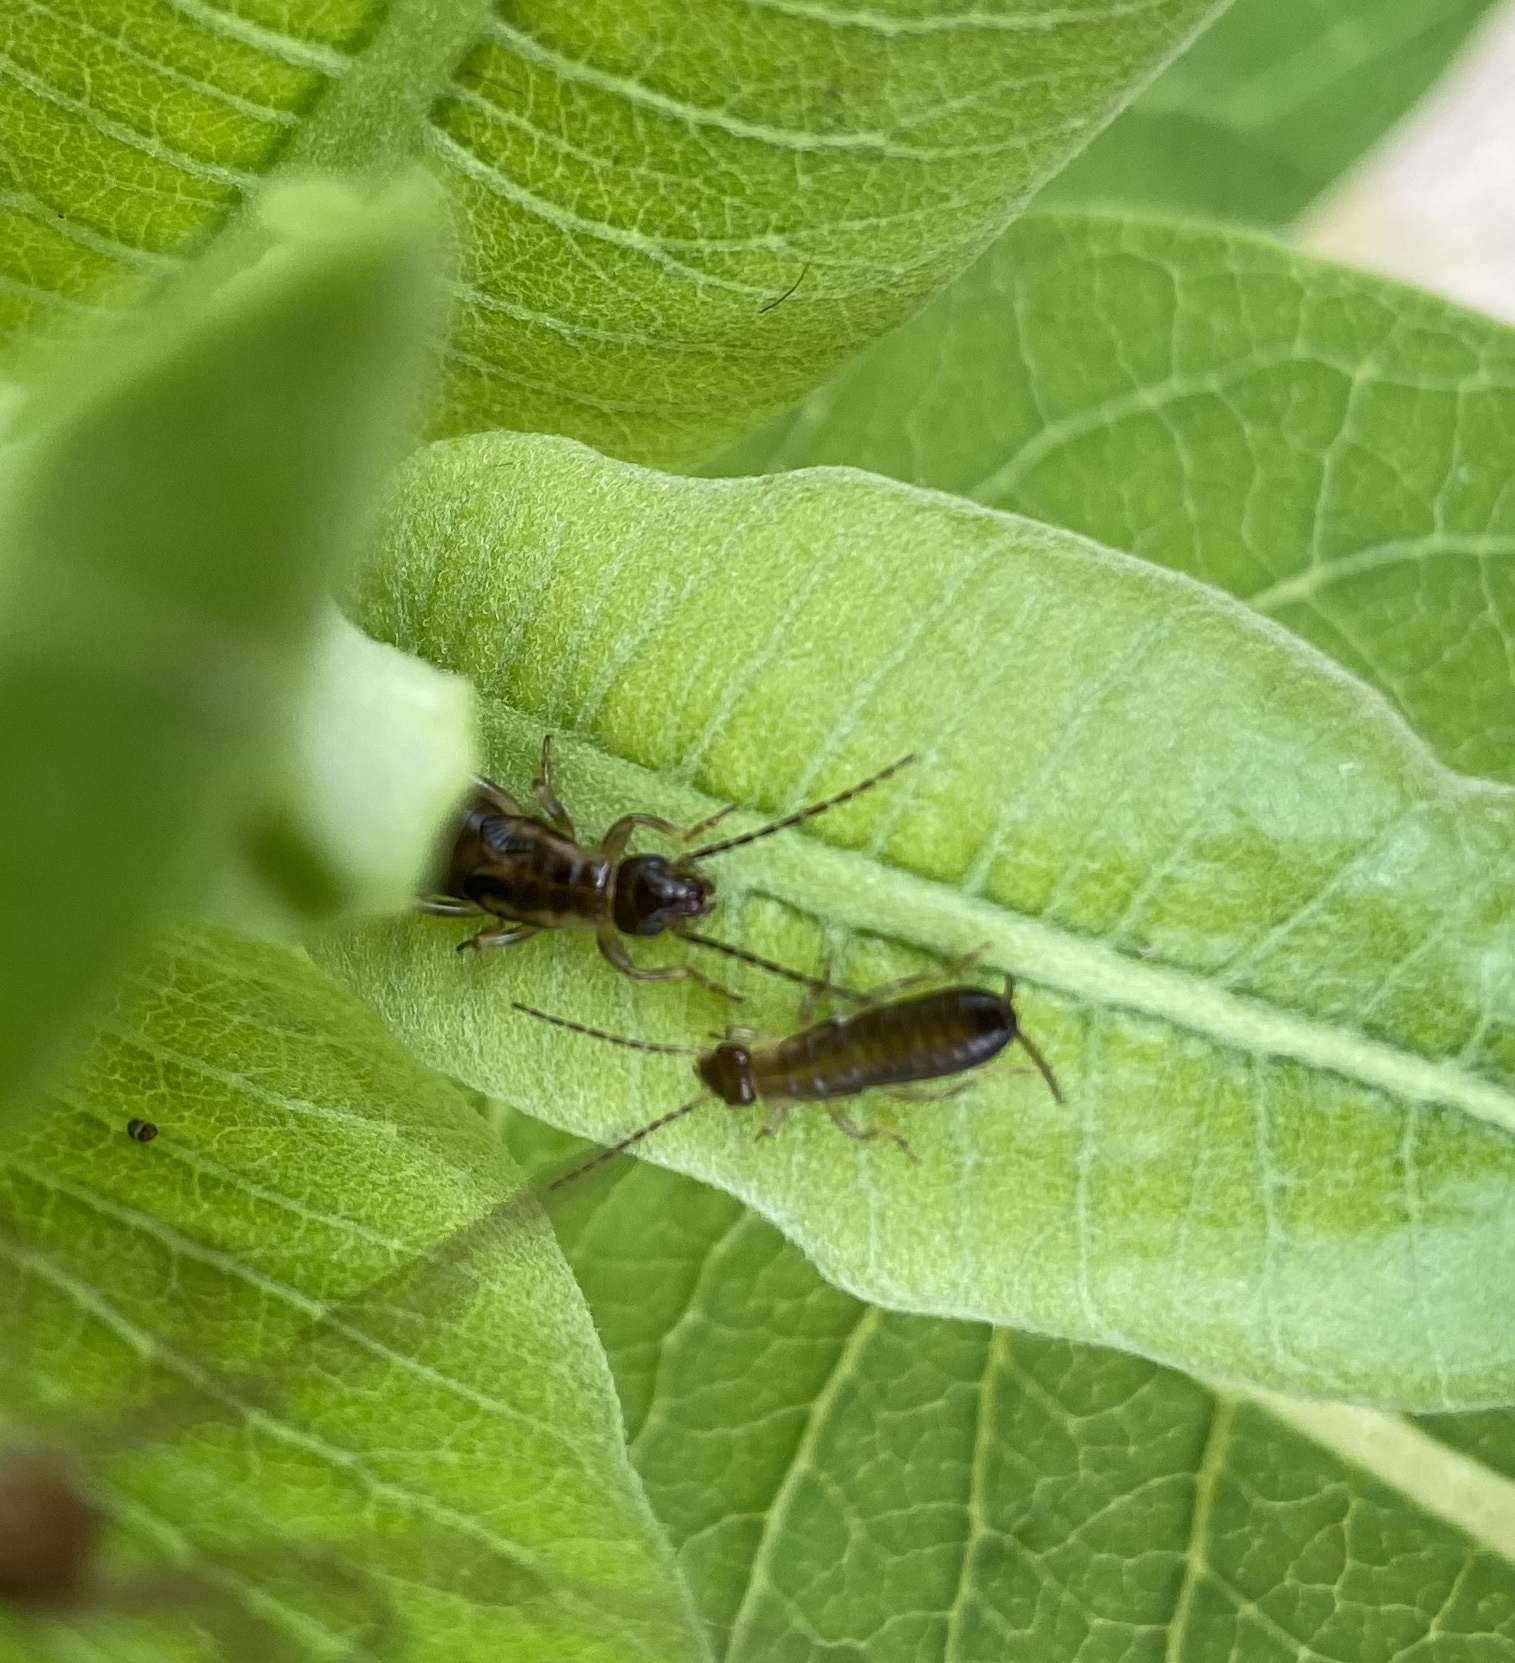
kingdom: Animalia
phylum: Arthropoda
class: Insecta
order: Dermaptera
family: Forficulidae
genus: Forficula
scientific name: Forficula
